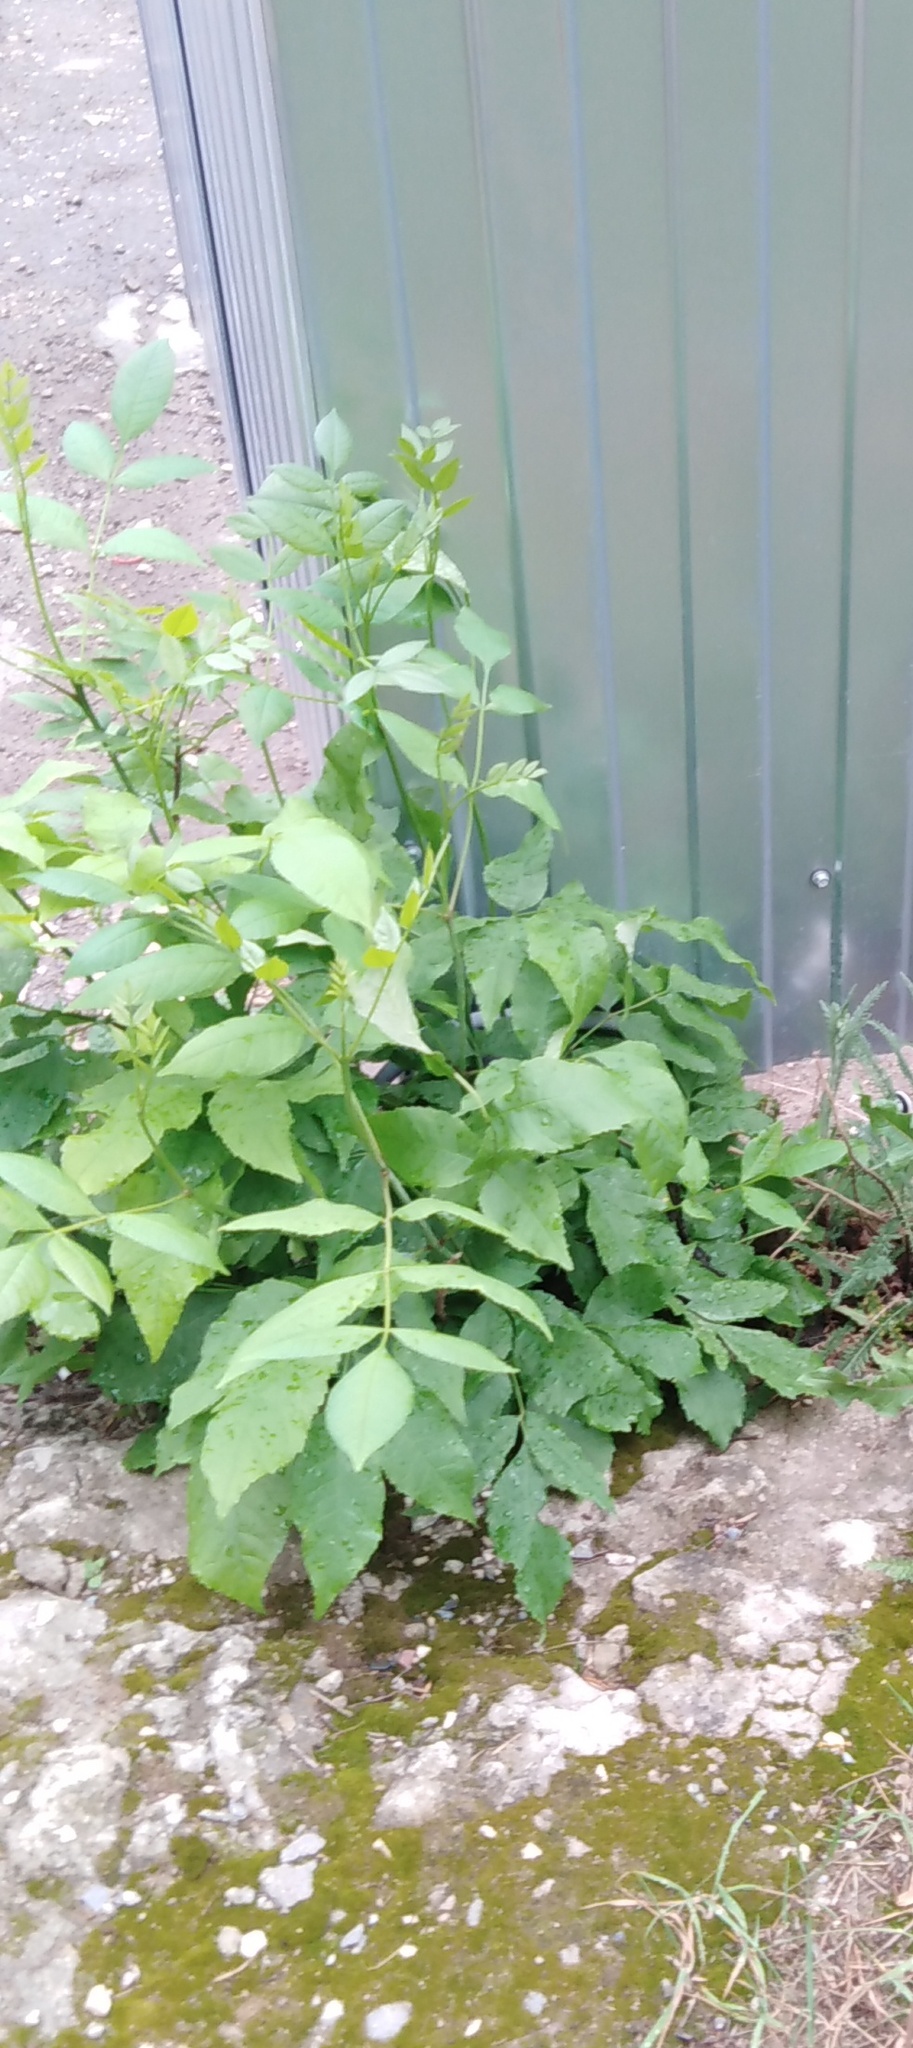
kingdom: Plantae
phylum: Tracheophyta
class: Magnoliopsida
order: Lamiales
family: Oleaceae
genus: Fraxinus
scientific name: Fraxinus pennsylvanica
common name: Green ash
